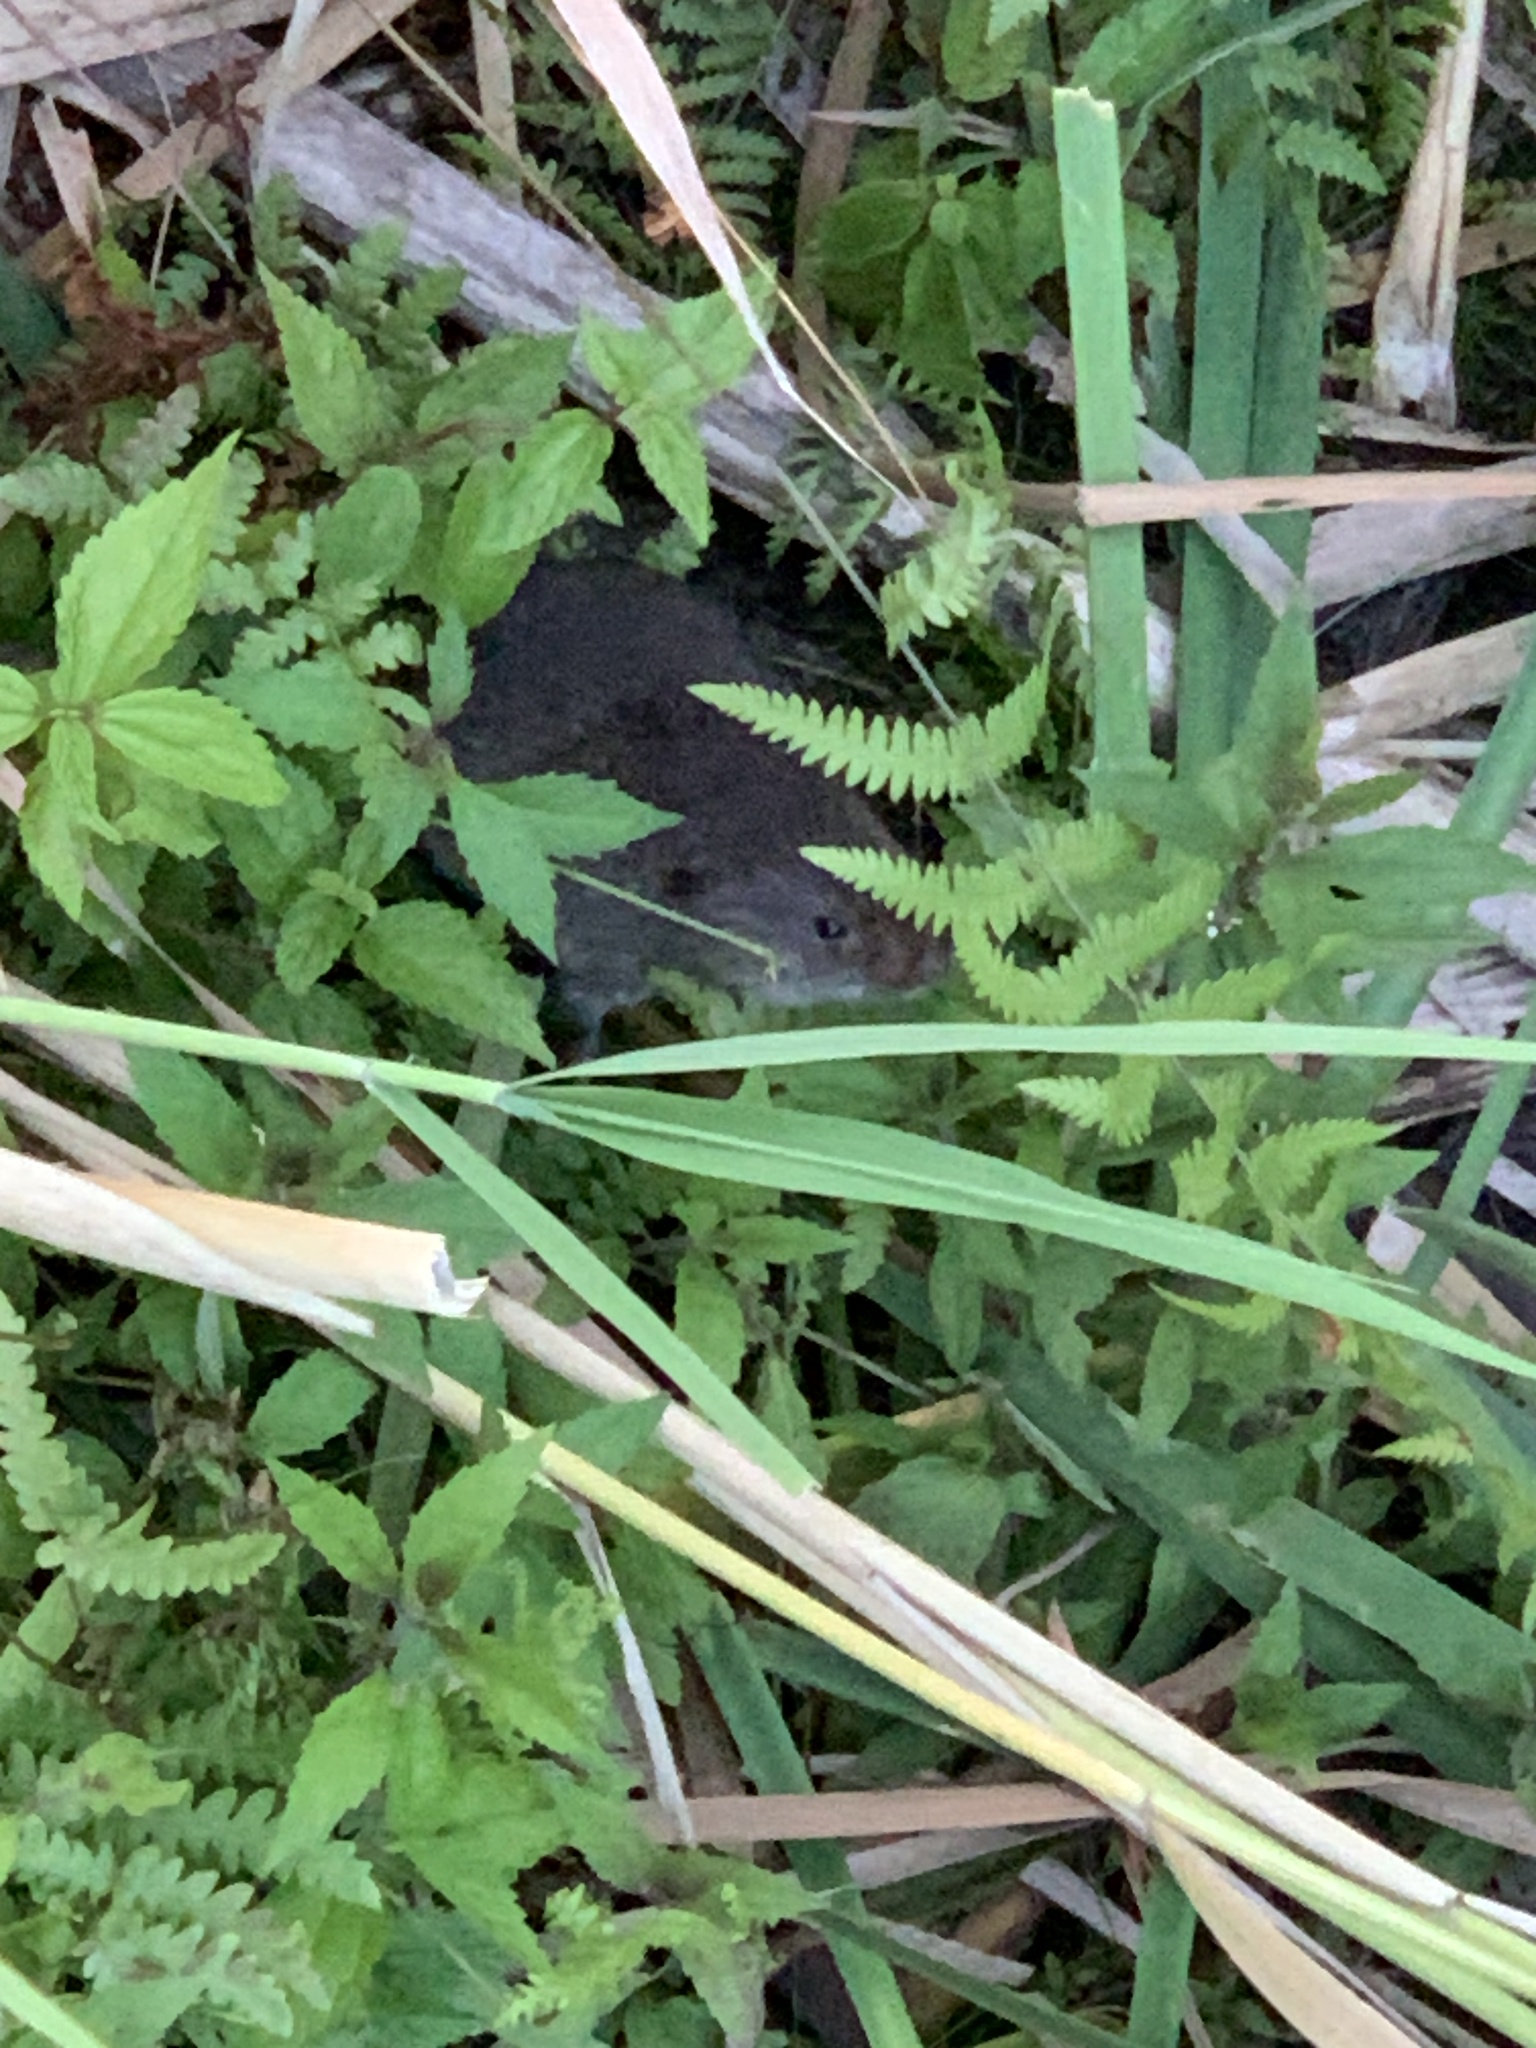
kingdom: Animalia
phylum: Chordata
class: Mammalia
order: Rodentia
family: Cricetidae
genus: Microtus
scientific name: Microtus pennsylvanicus
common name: Meadow vole
